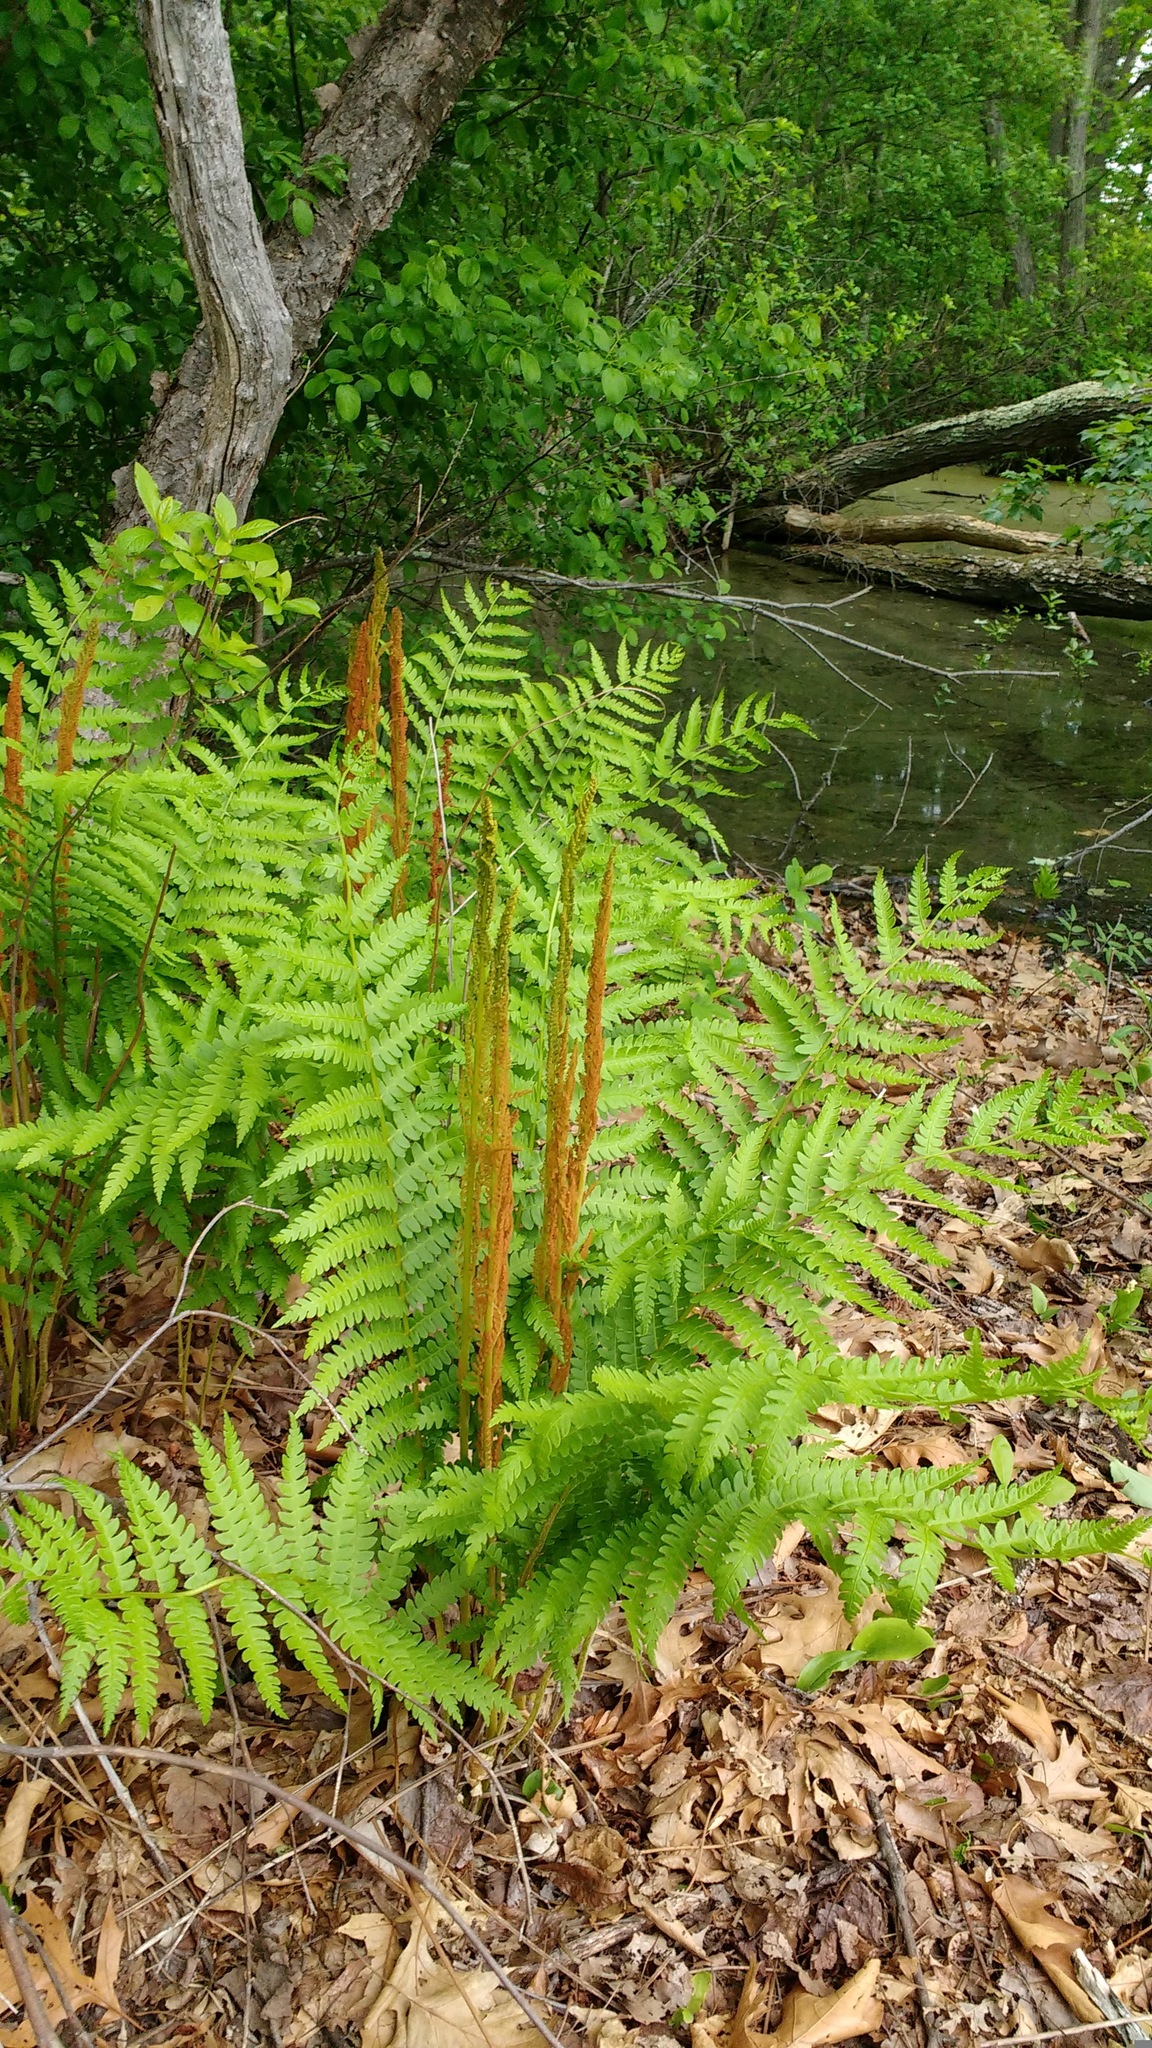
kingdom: Plantae
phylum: Tracheophyta
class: Polypodiopsida
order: Osmundales
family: Osmundaceae
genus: Osmundastrum
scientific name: Osmundastrum cinnamomeum
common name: Cinnamon fern
